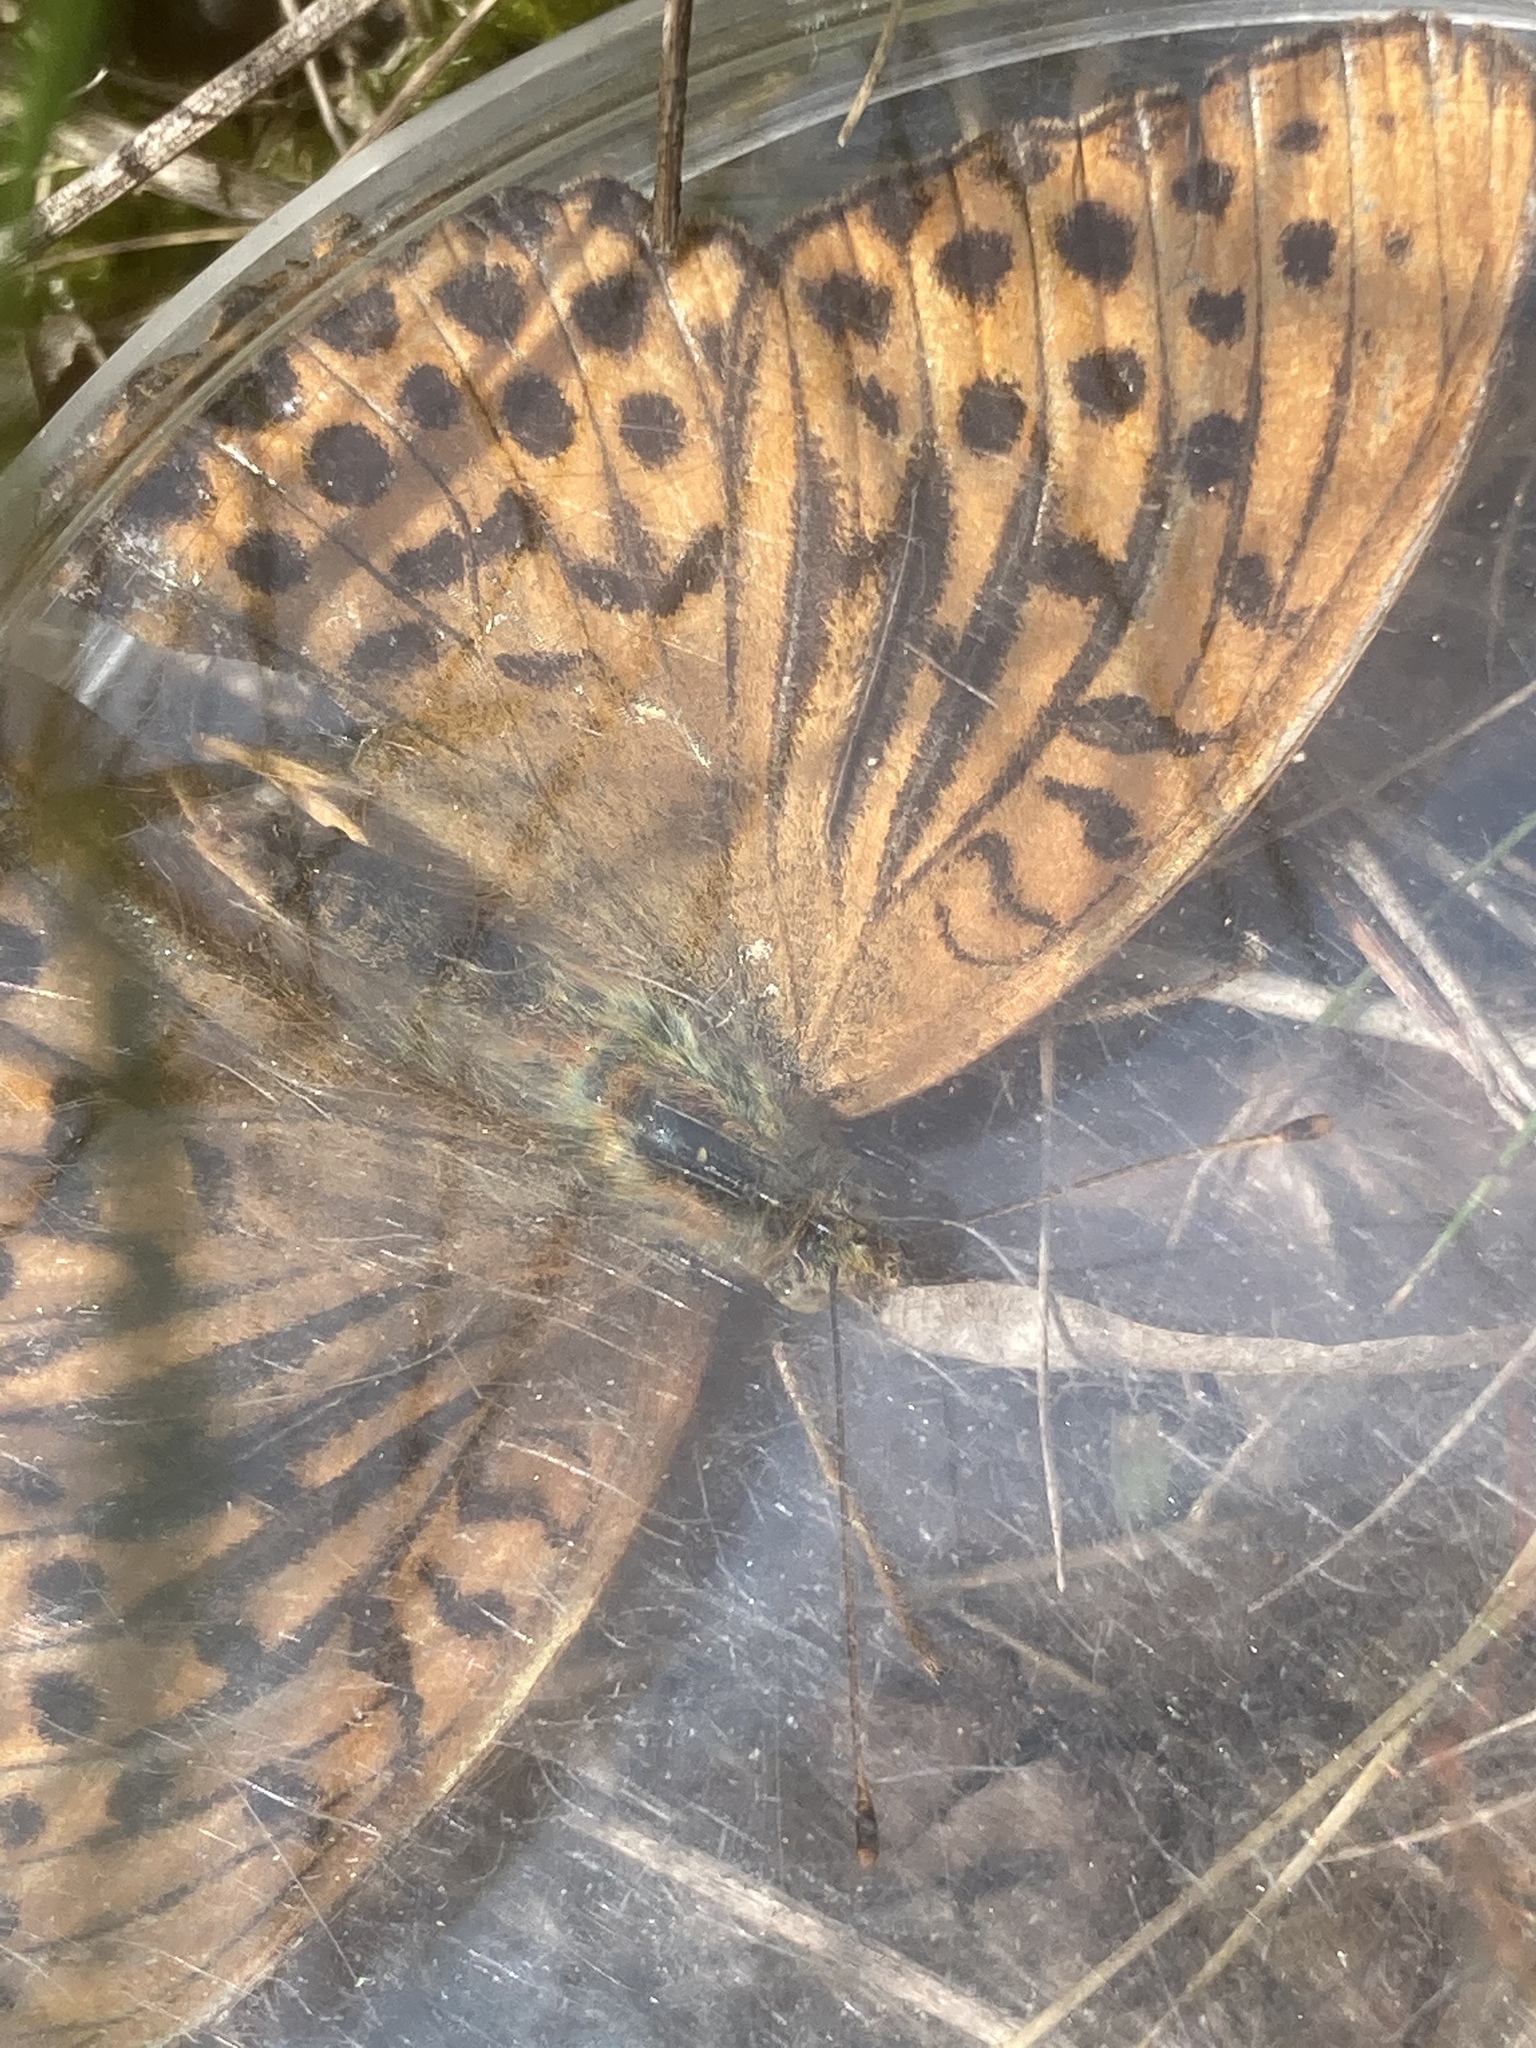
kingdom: Animalia
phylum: Arthropoda
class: Insecta
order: Lepidoptera
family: Nymphalidae
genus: Argynnis
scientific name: Argynnis paphia
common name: Silver-washed fritillary
